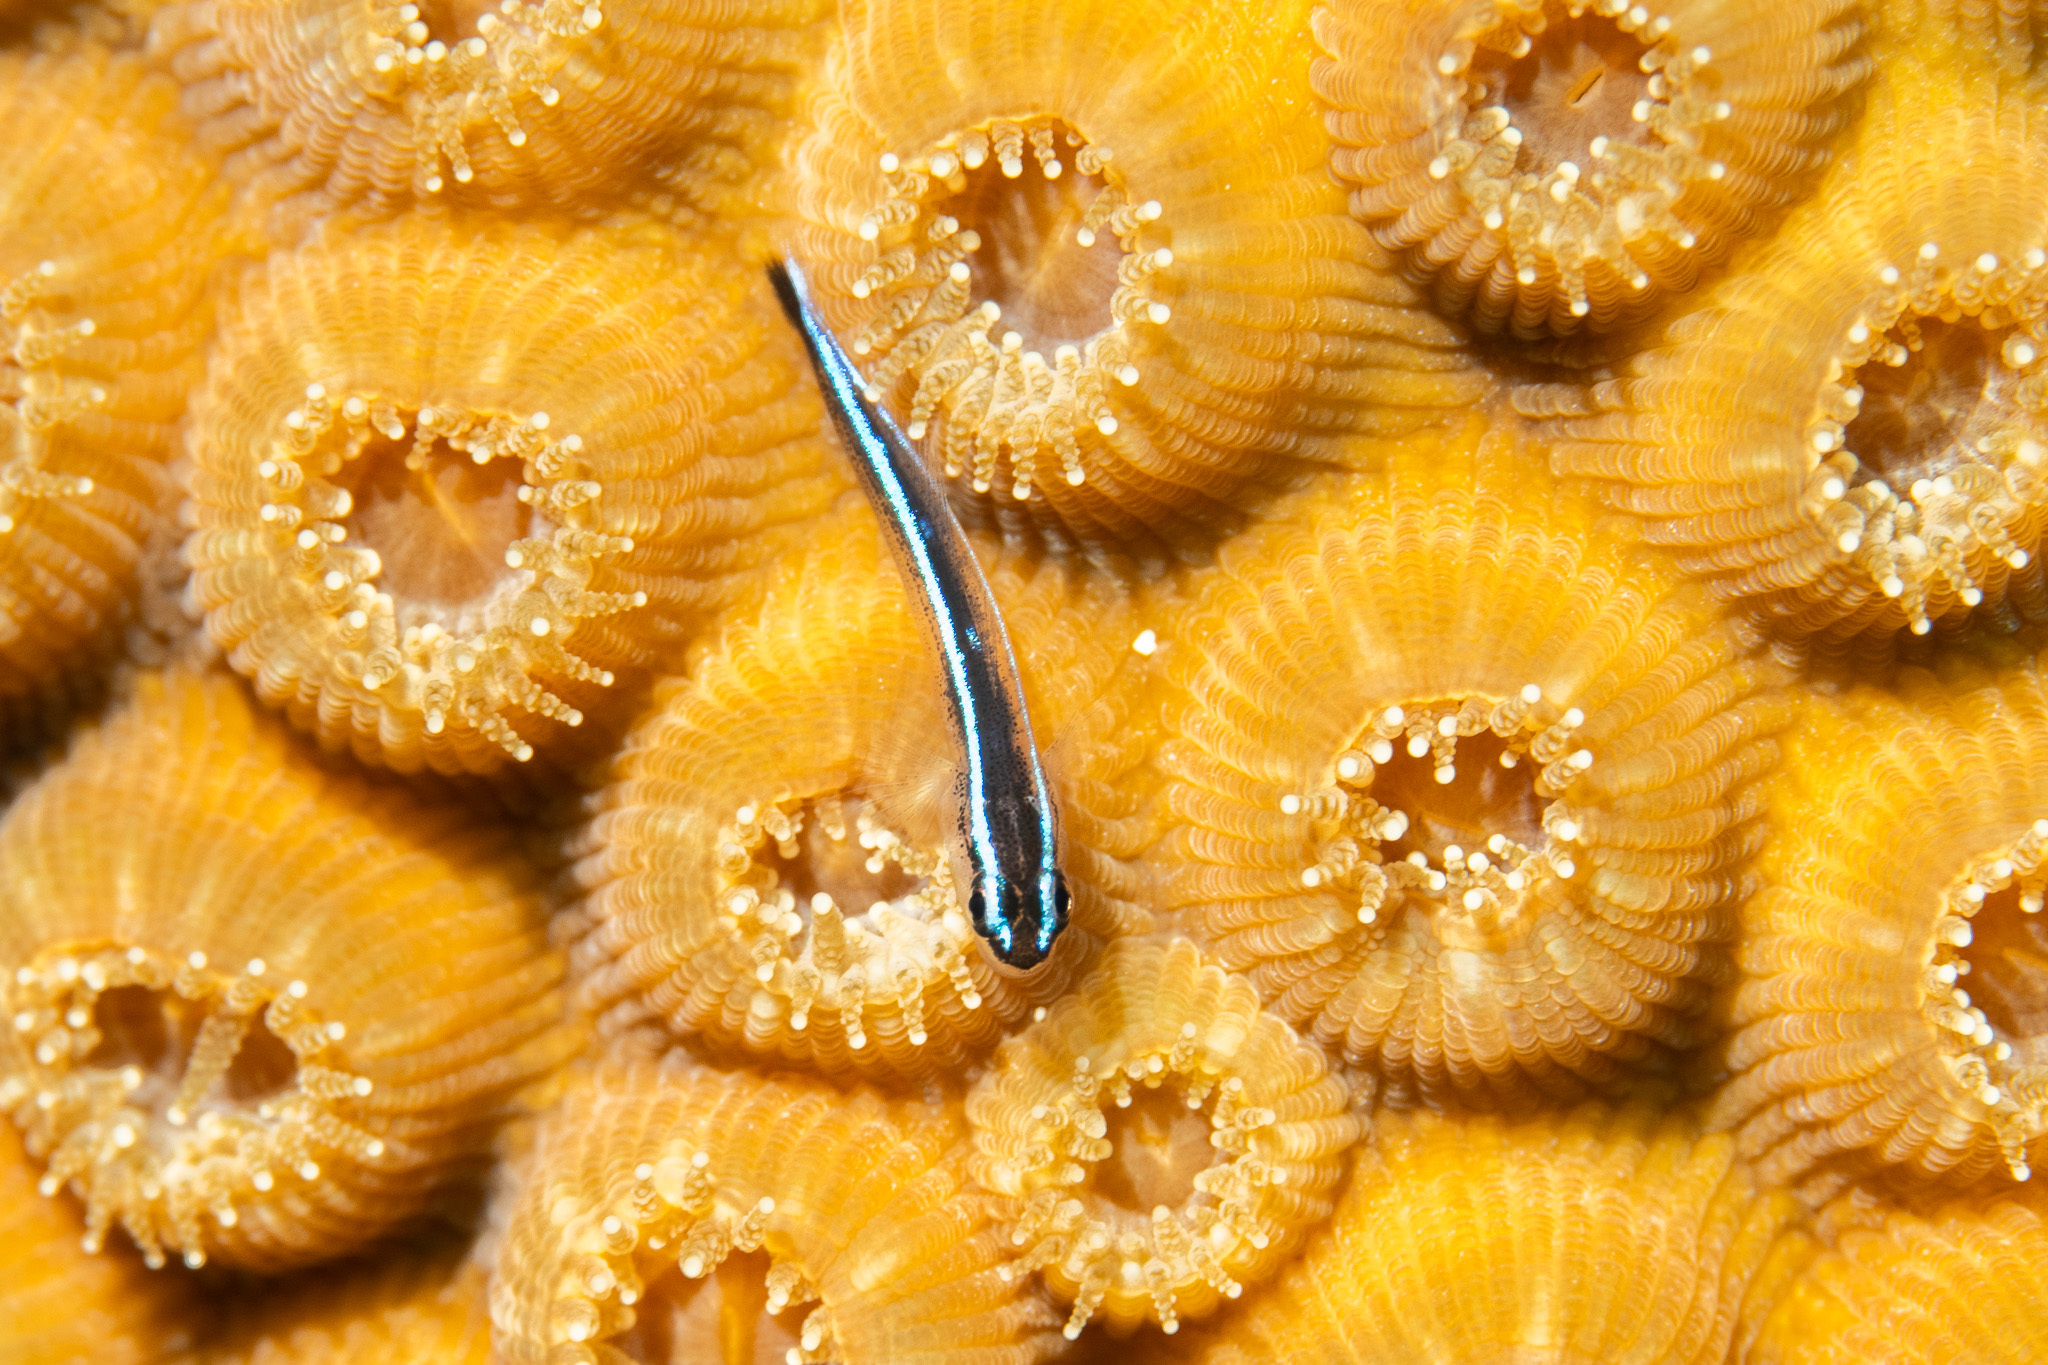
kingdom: Animalia
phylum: Chordata
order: Perciformes
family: Gobiidae
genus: Elacatinus
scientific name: Elacatinus lobeli
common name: Caribbean neon goby
